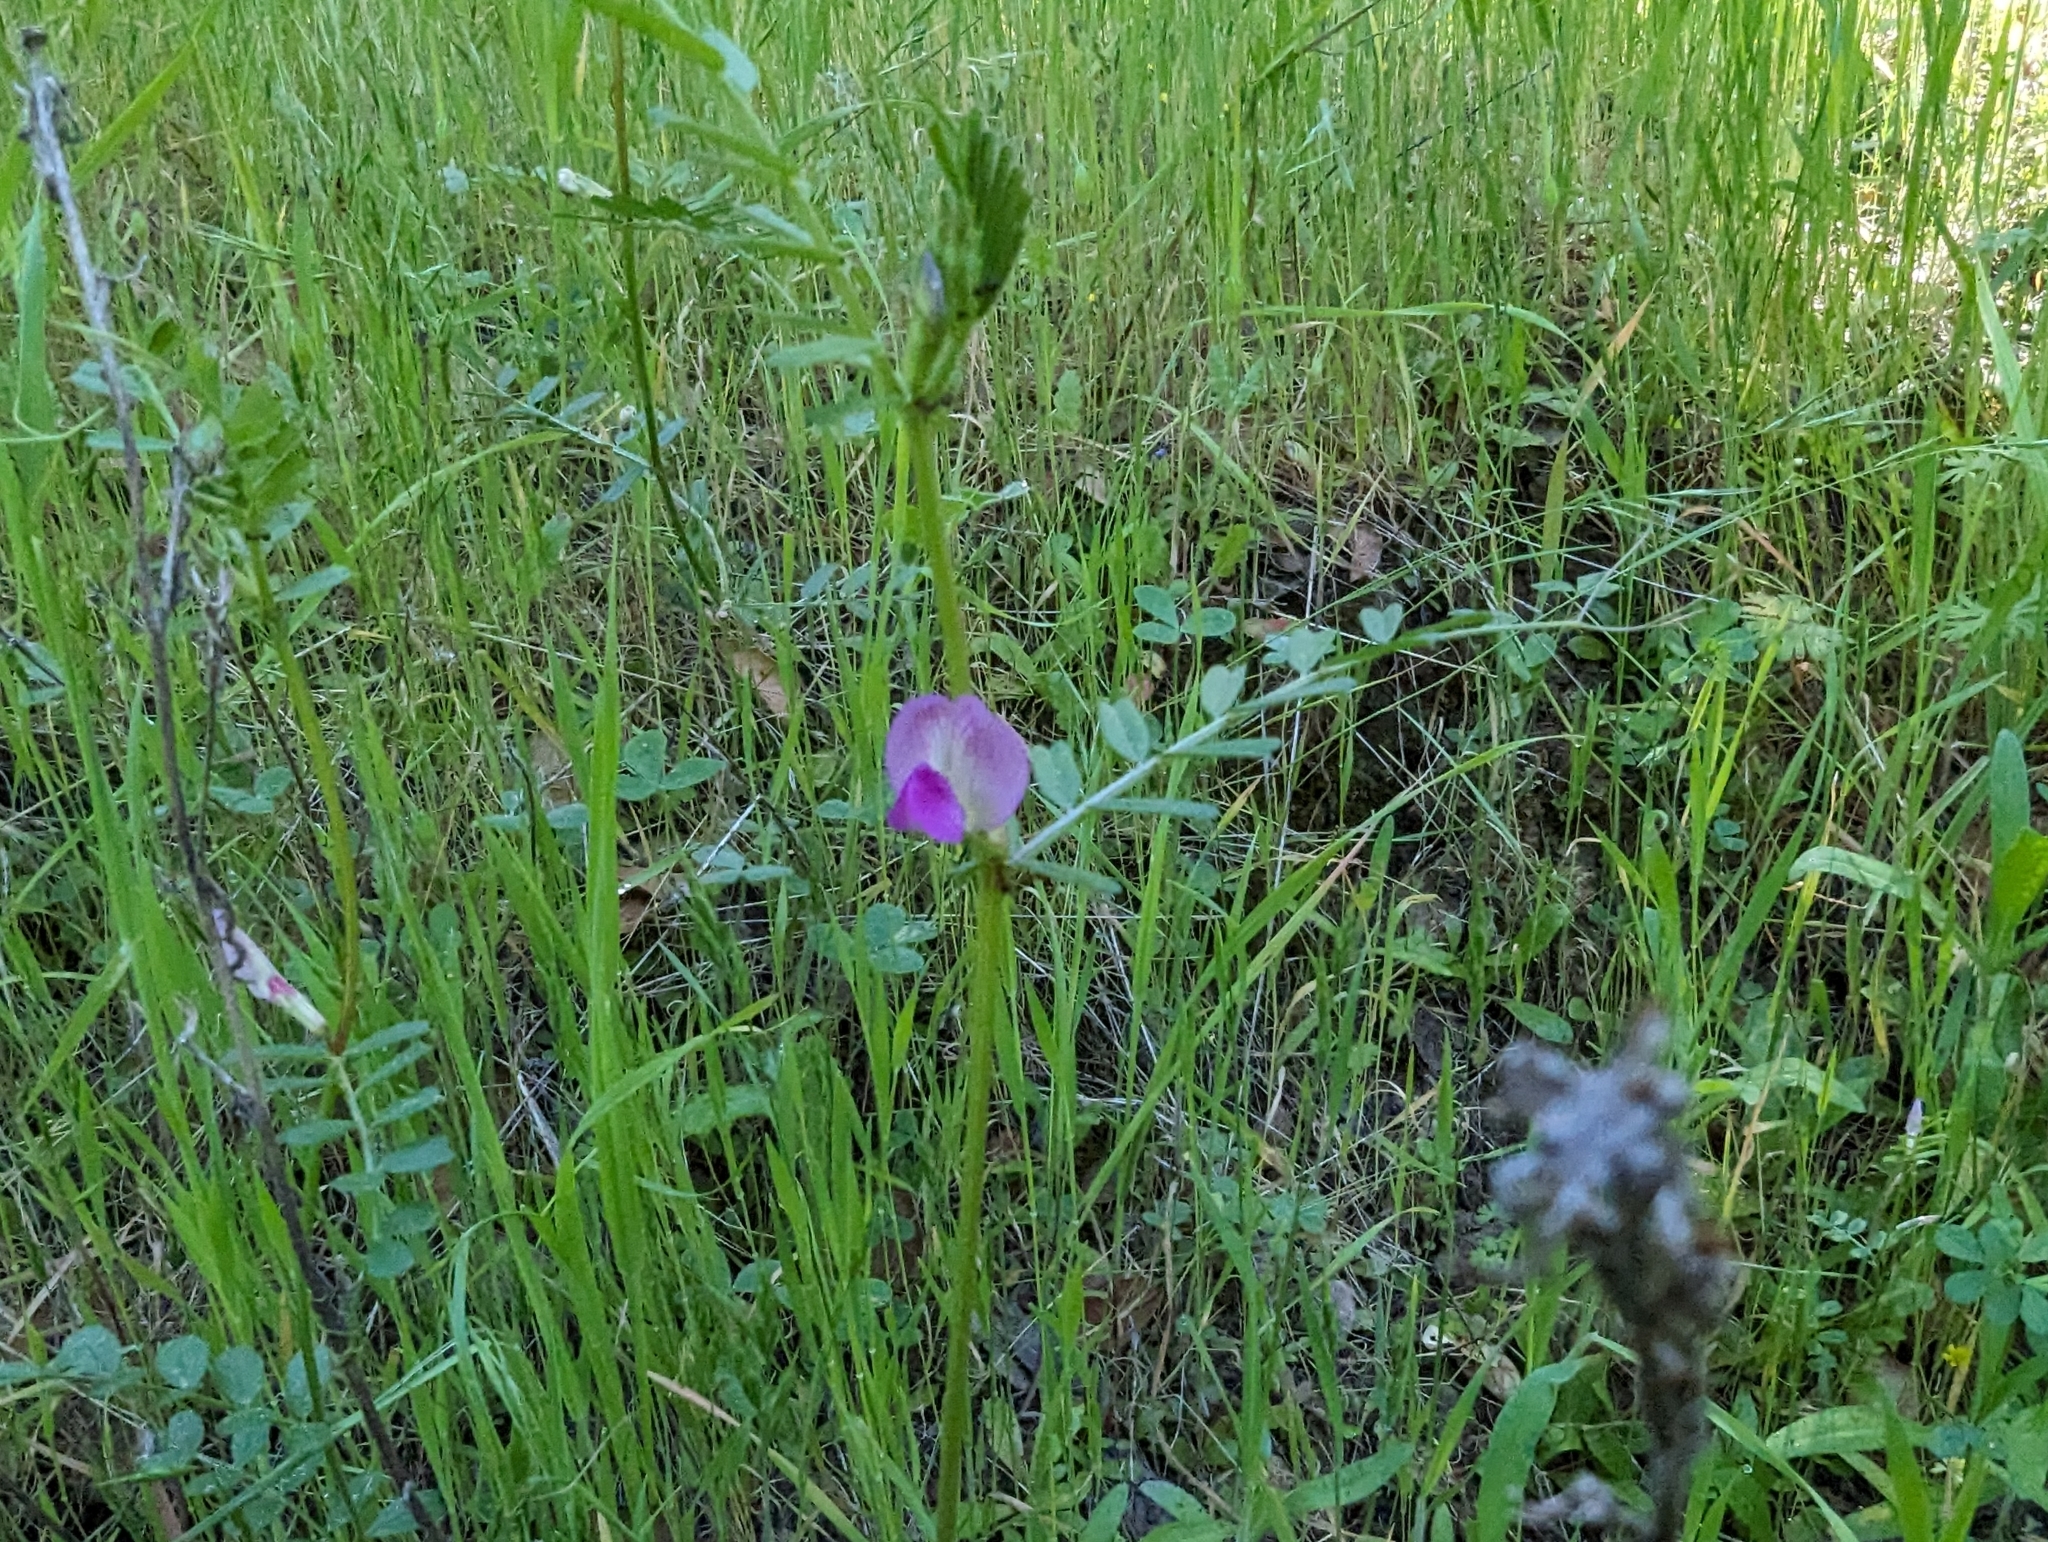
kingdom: Plantae
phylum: Tracheophyta
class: Magnoliopsida
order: Fabales
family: Fabaceae
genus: Vicia
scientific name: Vicia sativa
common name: Garden vetch
